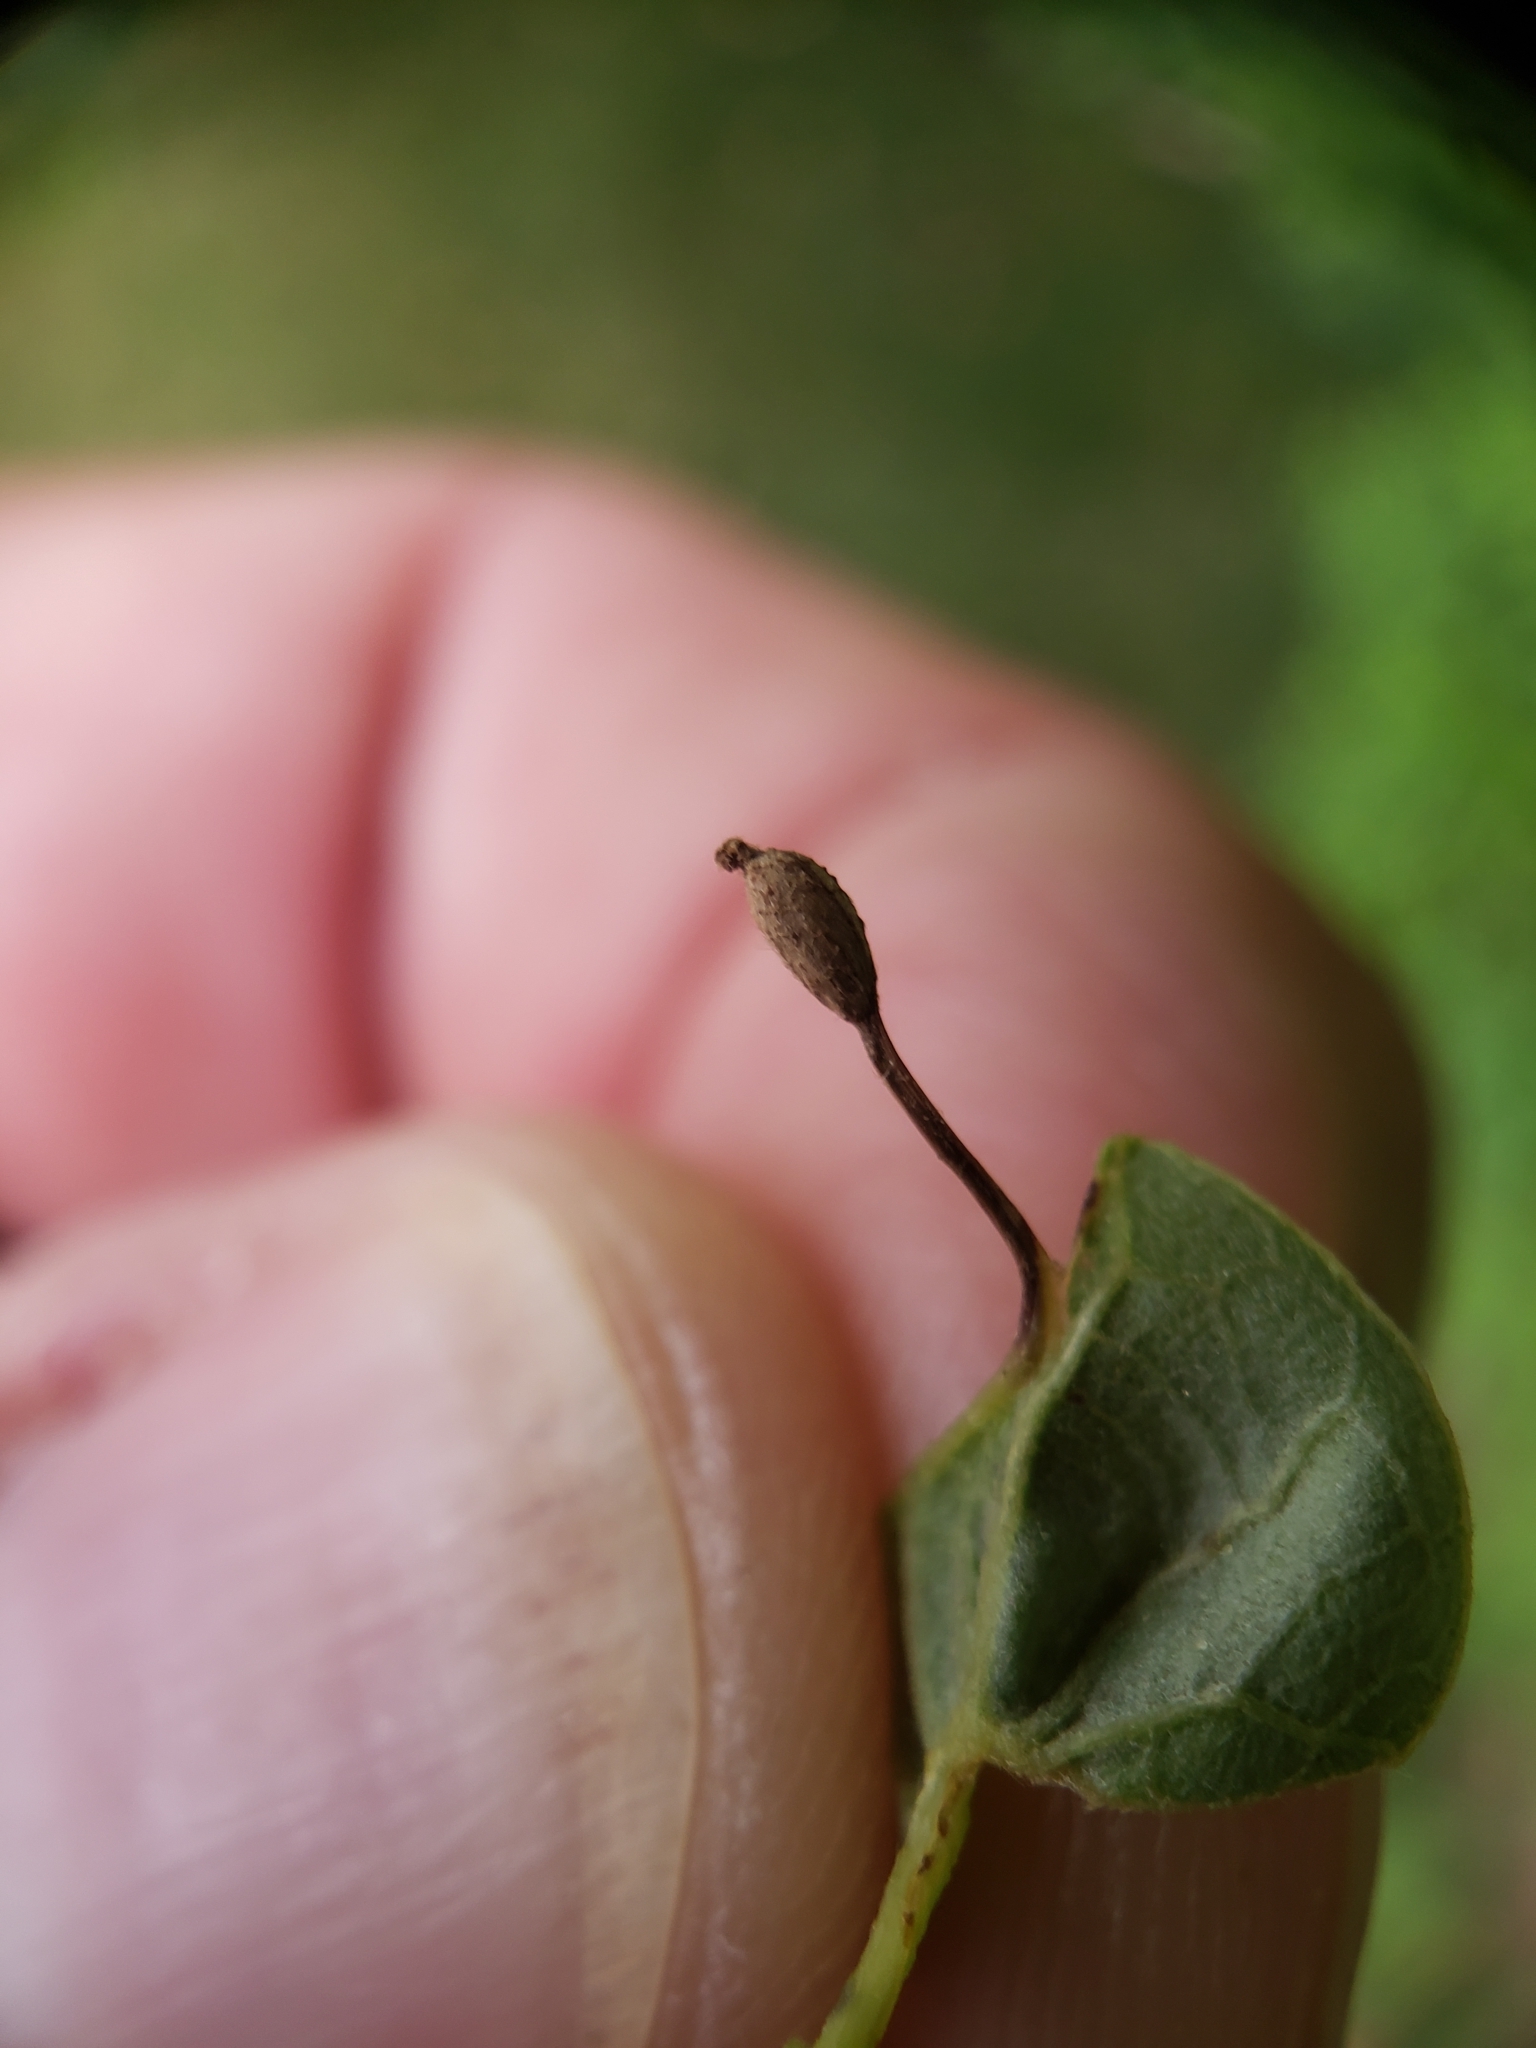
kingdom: Animalia
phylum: Arthropoda
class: Insecta
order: Hymenoptera
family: Cynipidae
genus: Andricus
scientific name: Andricus
